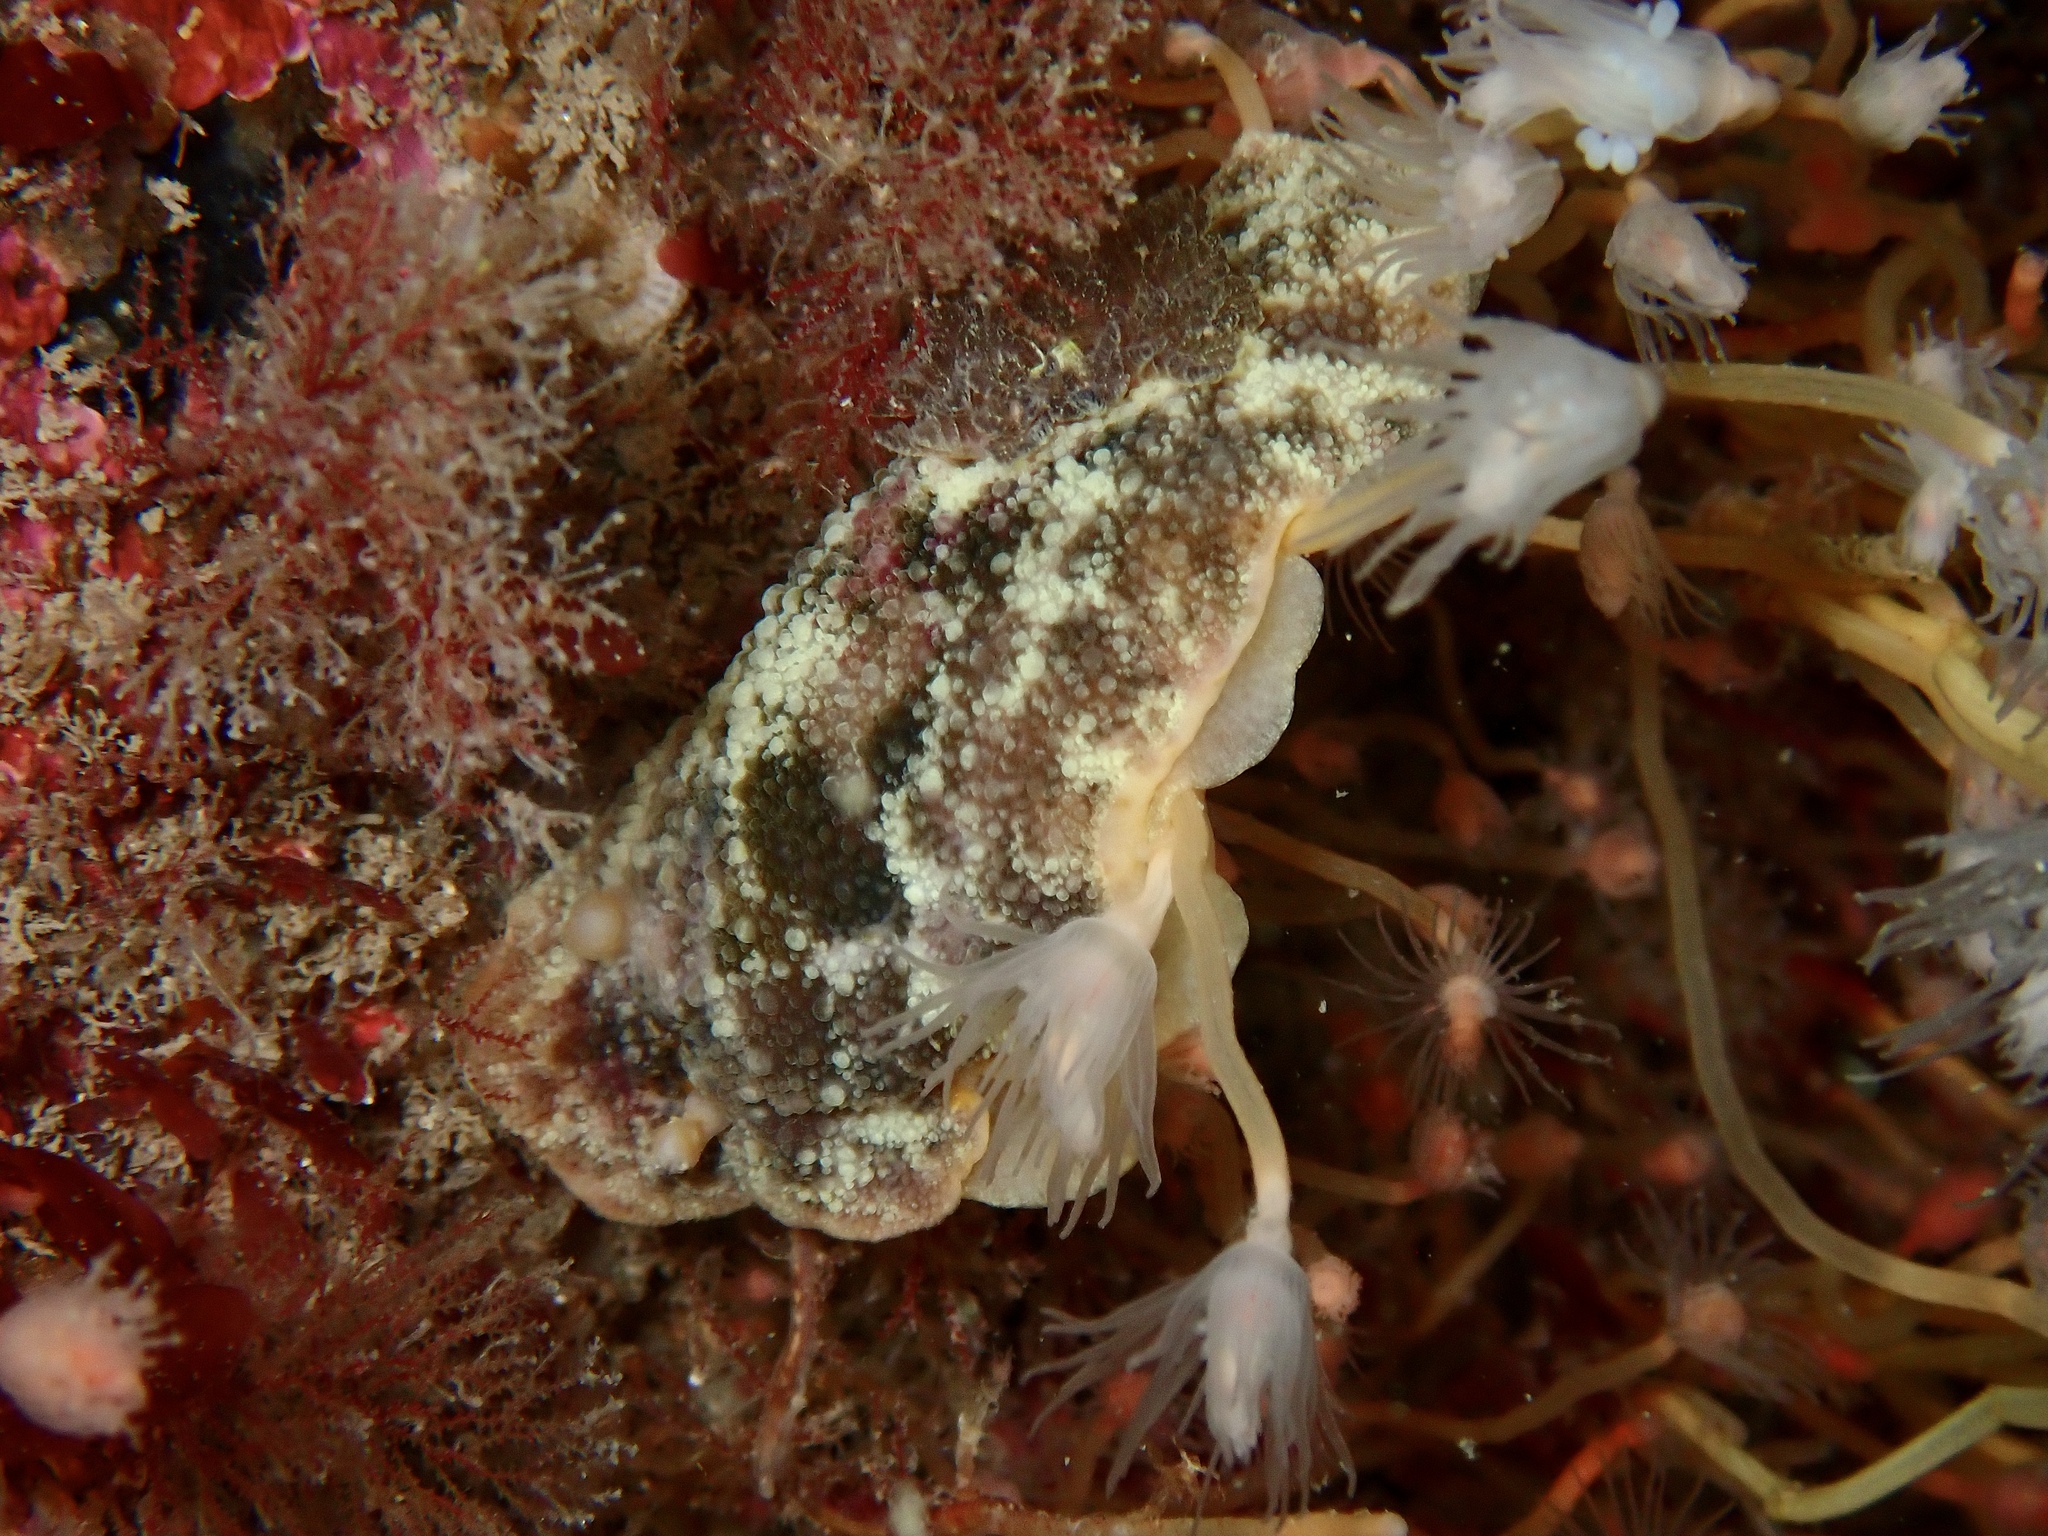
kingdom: Animalia
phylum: Mollusca
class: Gastropoda
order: Nudibranchia
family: Dorididae
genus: Doris
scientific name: Doris pseudoargus
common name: Sea lemon
